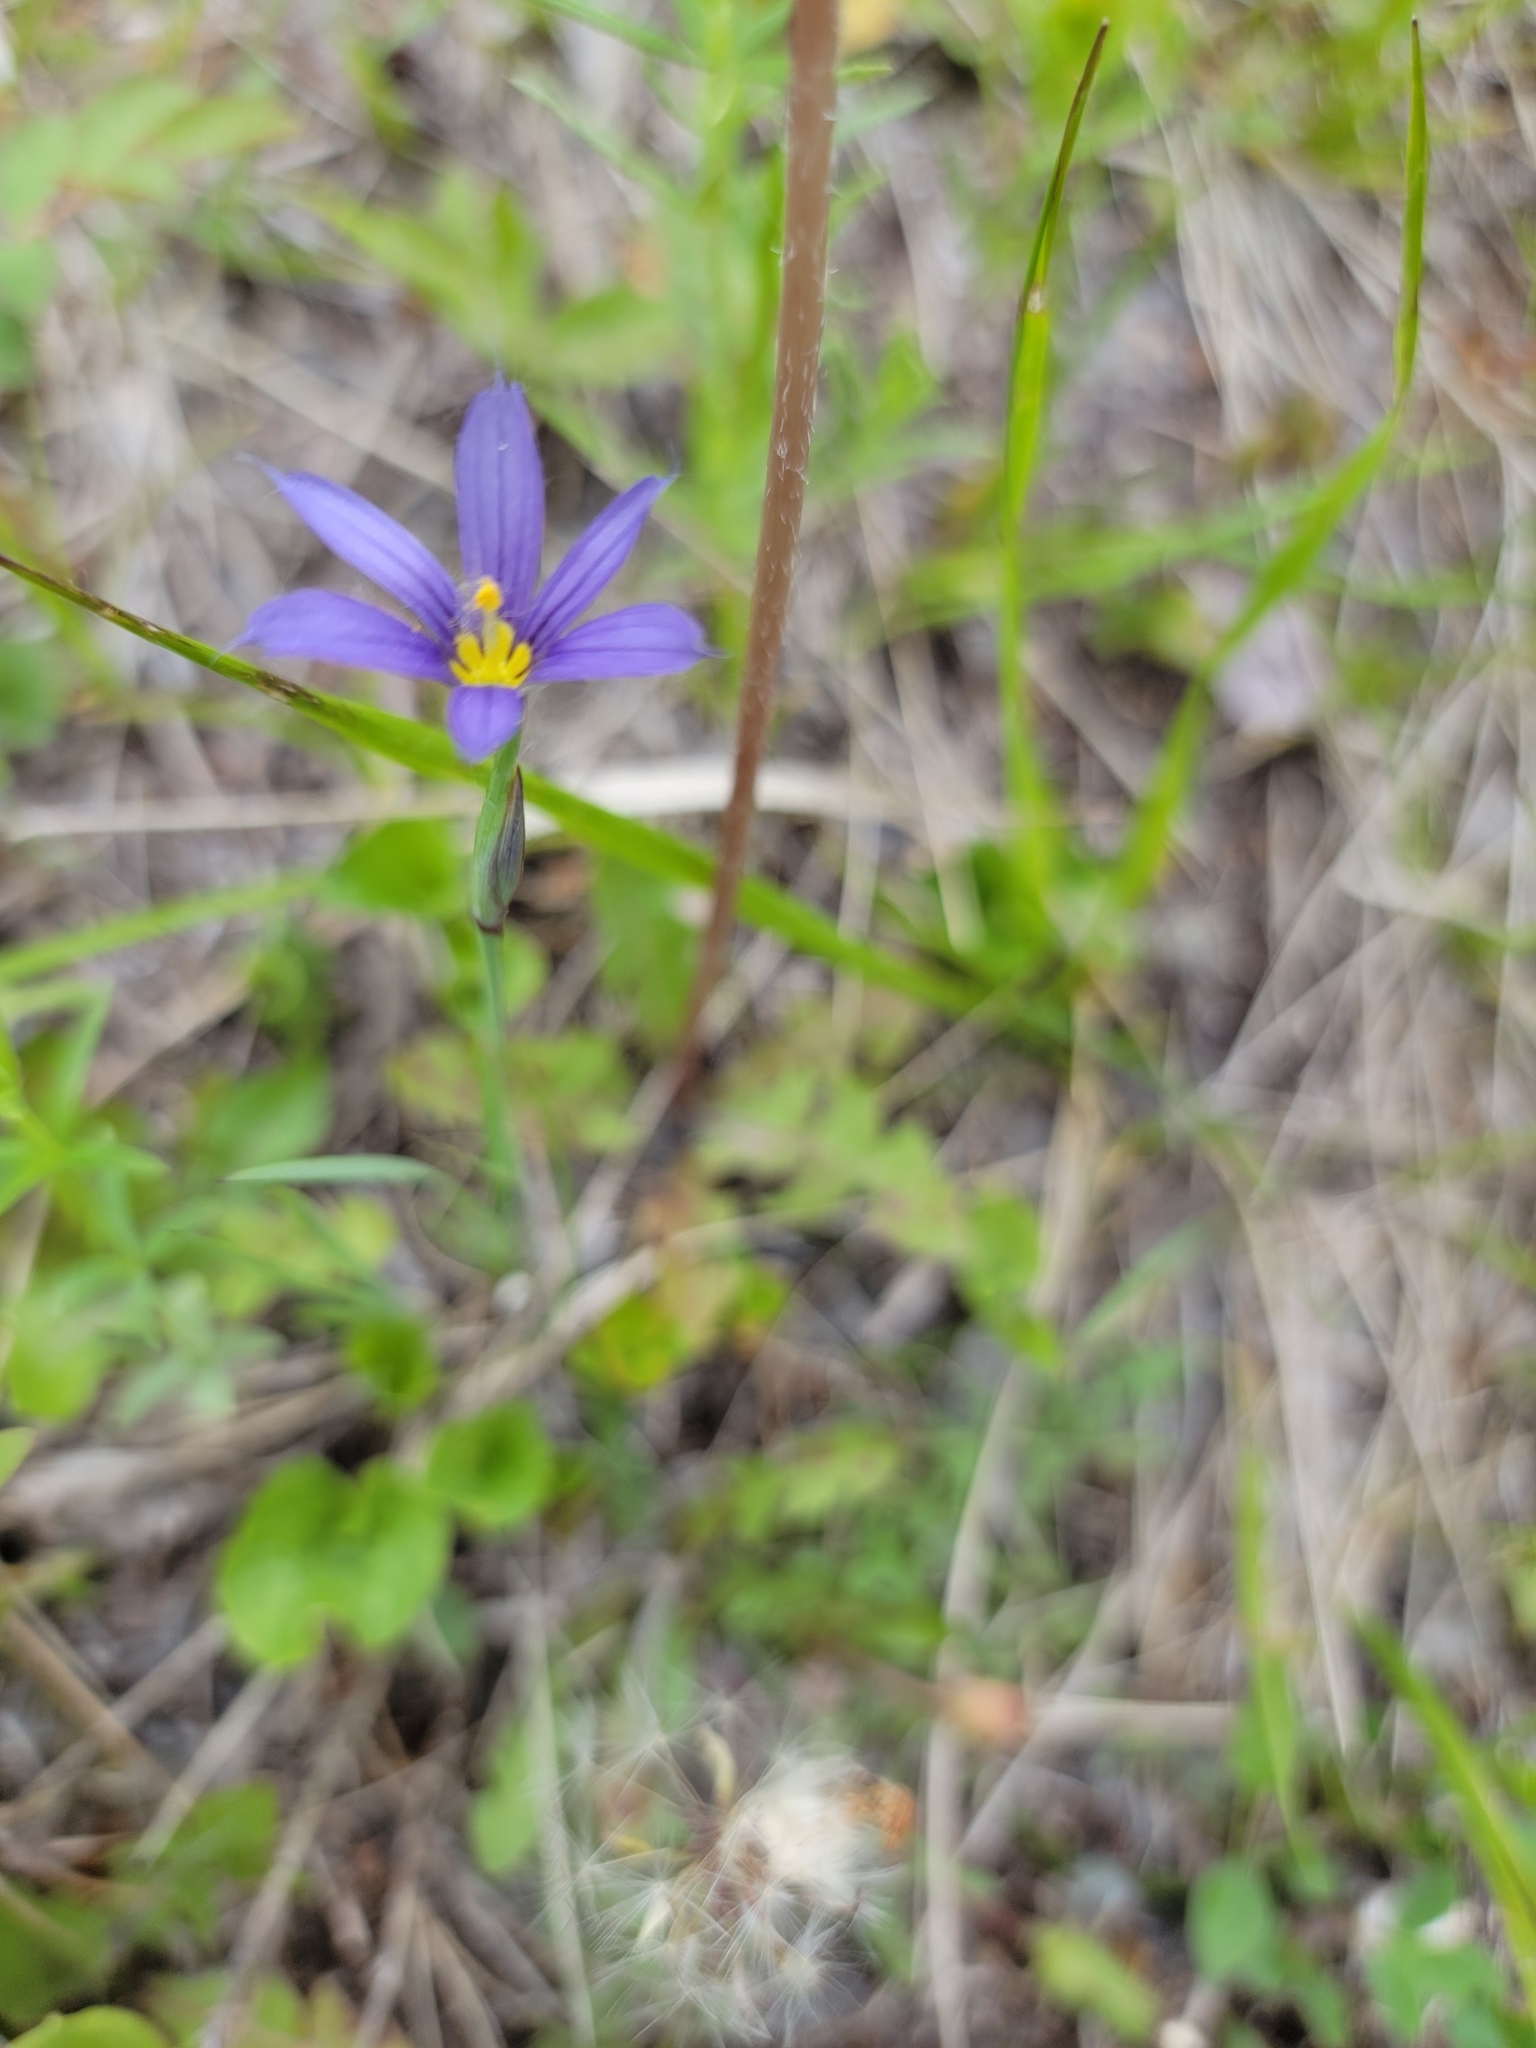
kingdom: Plantae
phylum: Tracheophyta
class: Liliopsida
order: Asparagales
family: Iridaceae
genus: Sisyrinchium
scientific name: Sisyrinchium montanum
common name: American blue-eyed-grass
